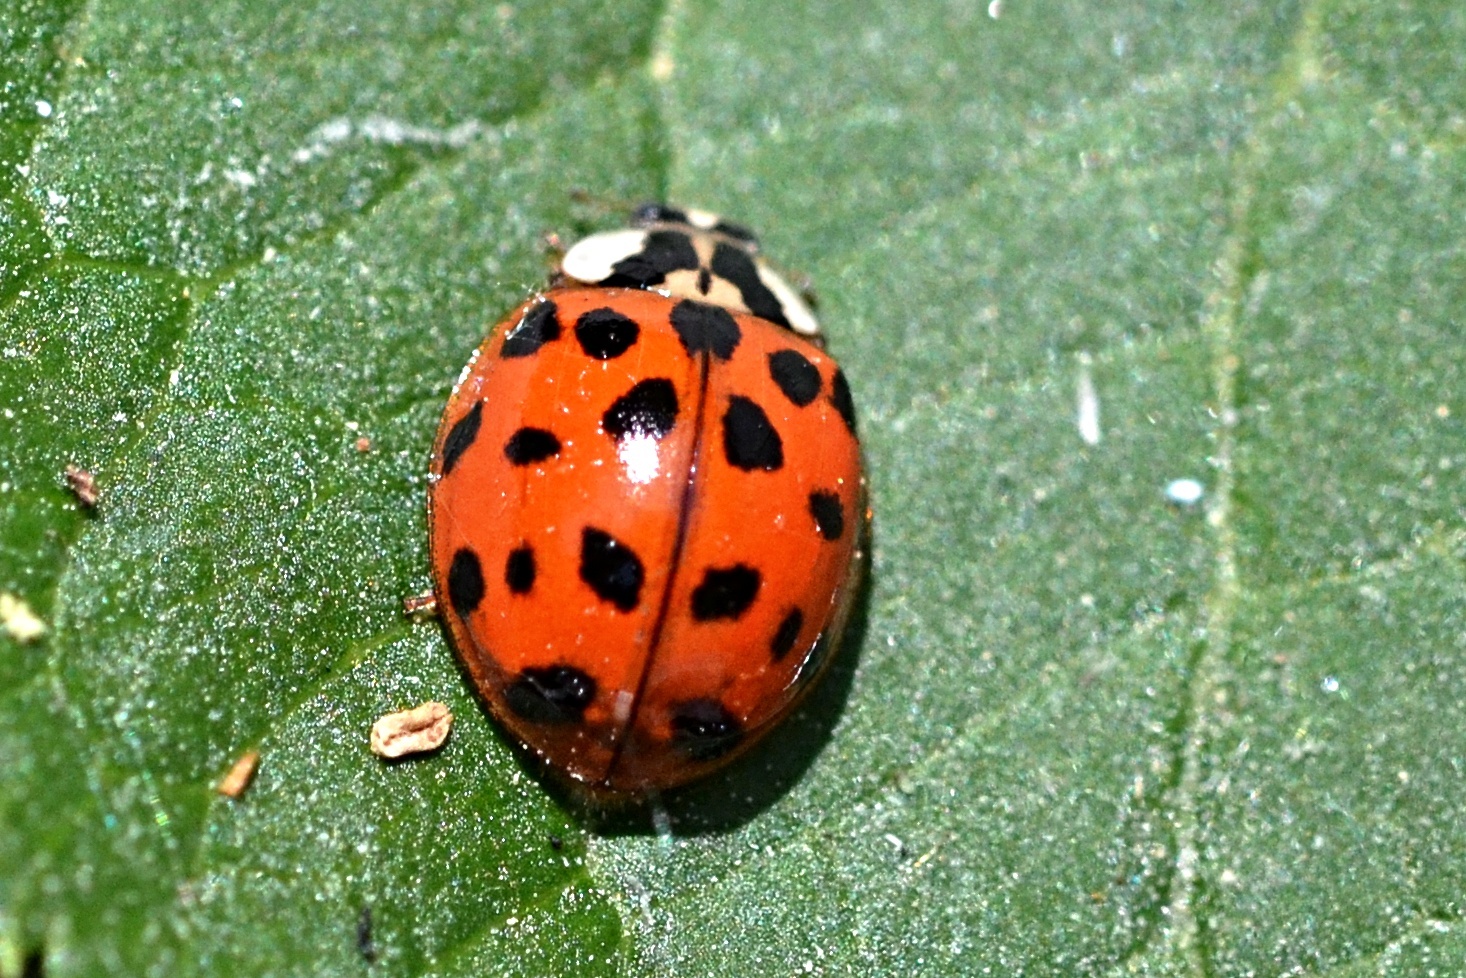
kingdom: Animalia
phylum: Arthropoda
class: Insecta
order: Coleoptera
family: Coccinellidae
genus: Harmonia
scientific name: Harmonia axyridis
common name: Harlequin ladybird
